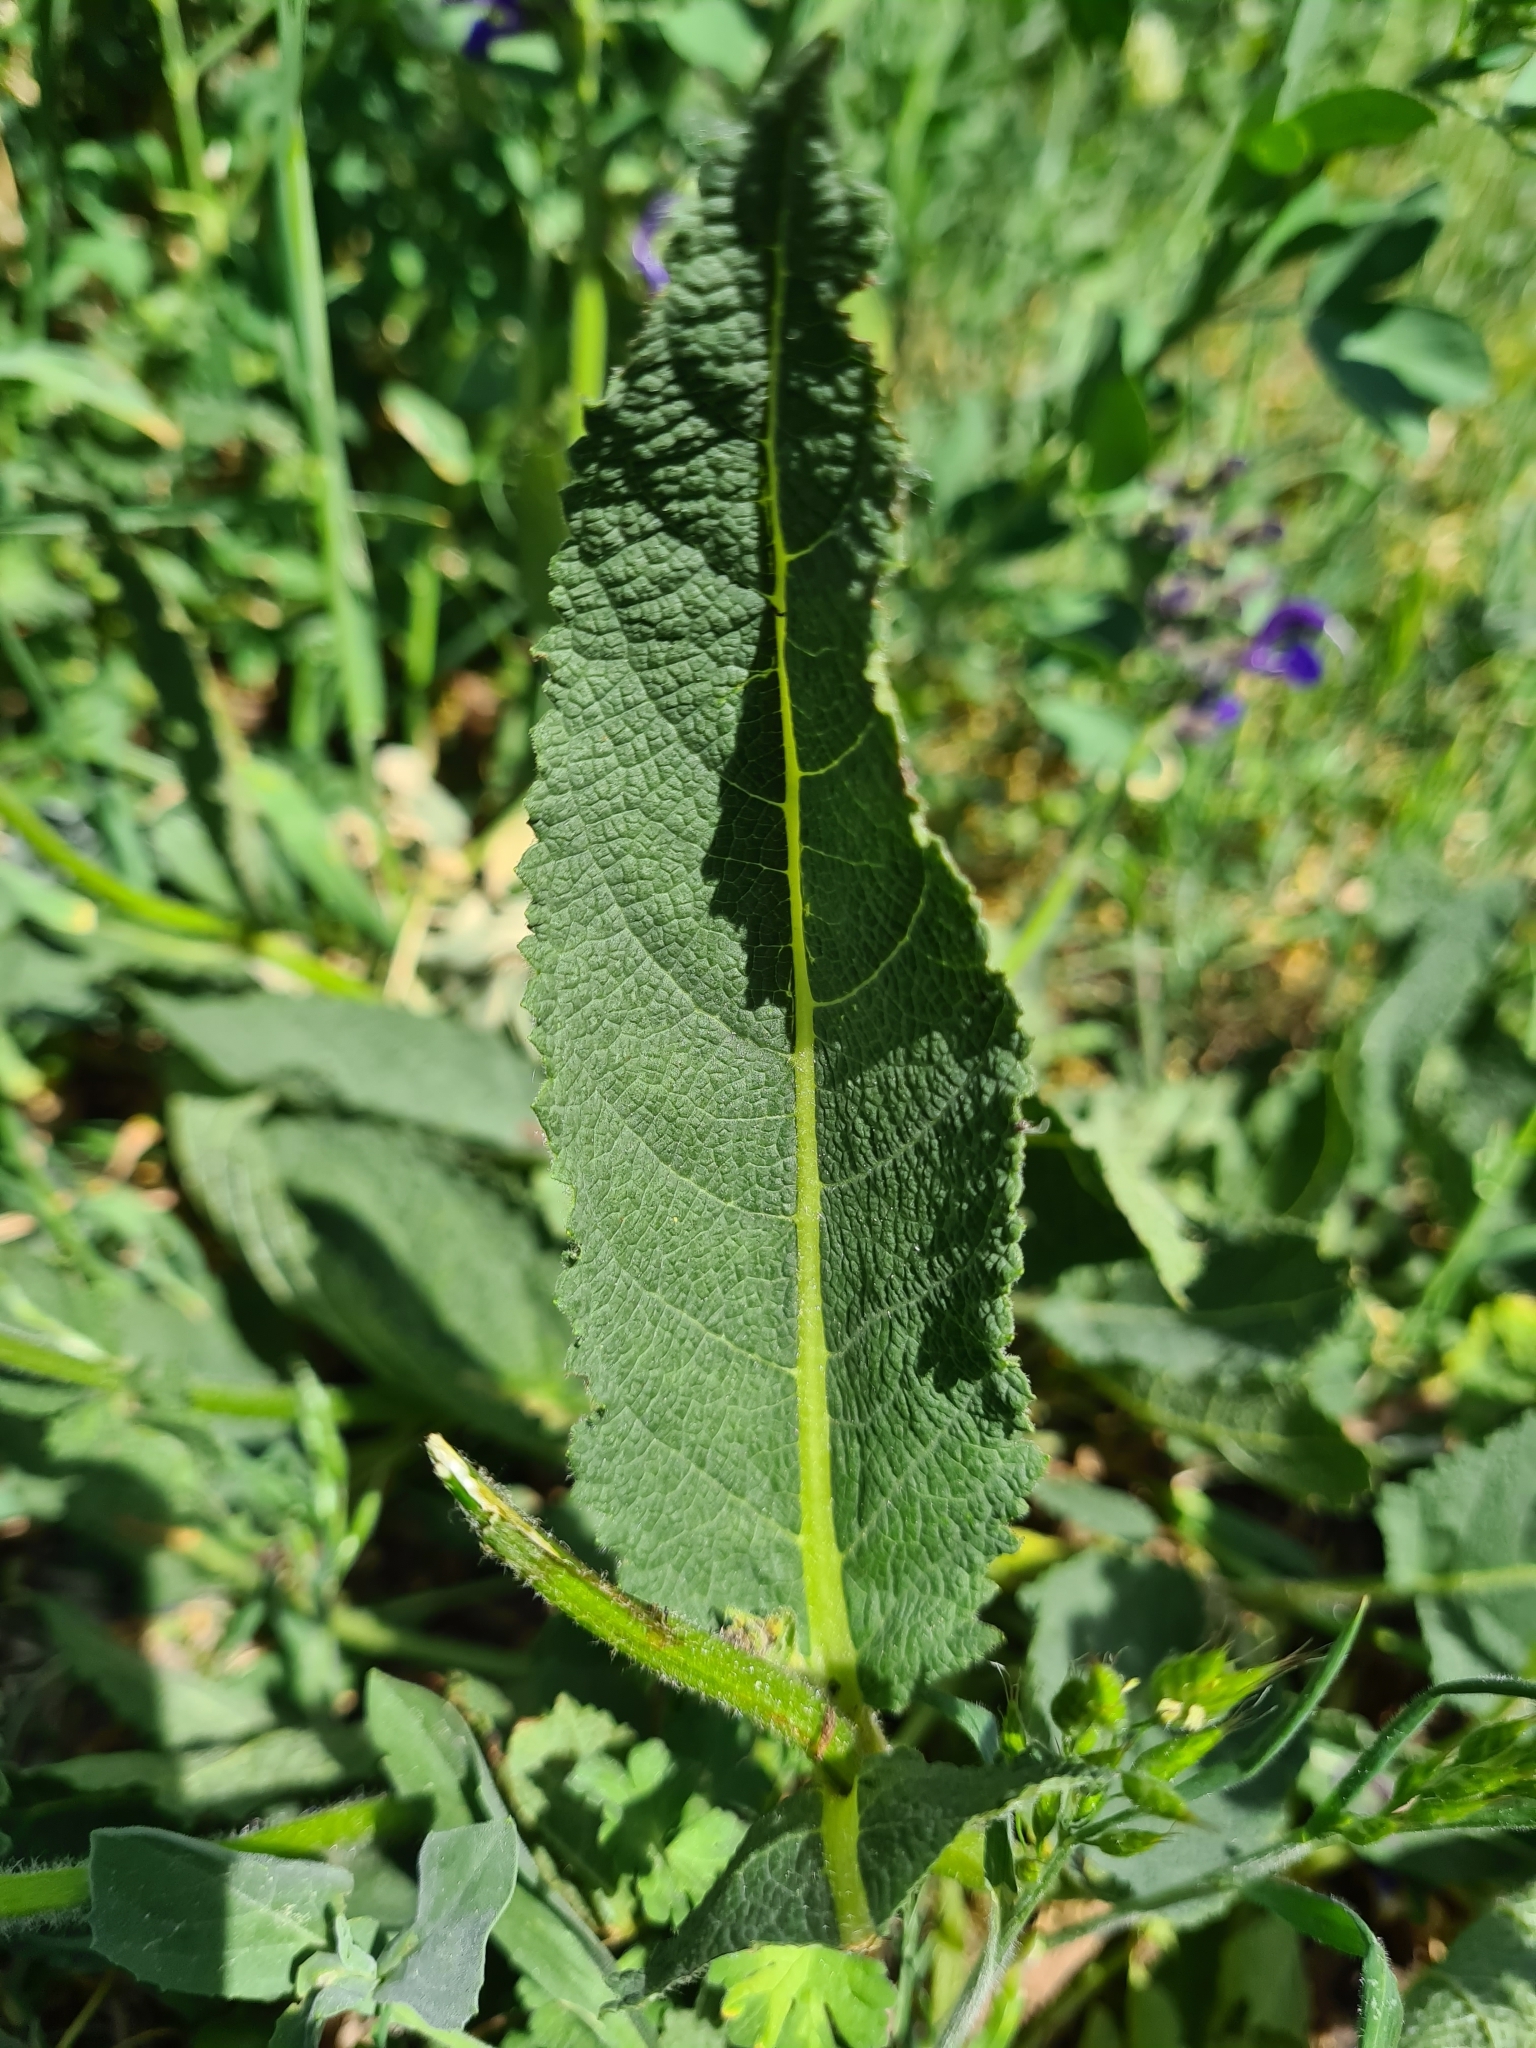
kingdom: Plantae
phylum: Tracheophyta
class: Magnoliopsida
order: Lamiales
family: Lamiaceae
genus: Salvia
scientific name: Salvia pratensis
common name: Meadow sage
